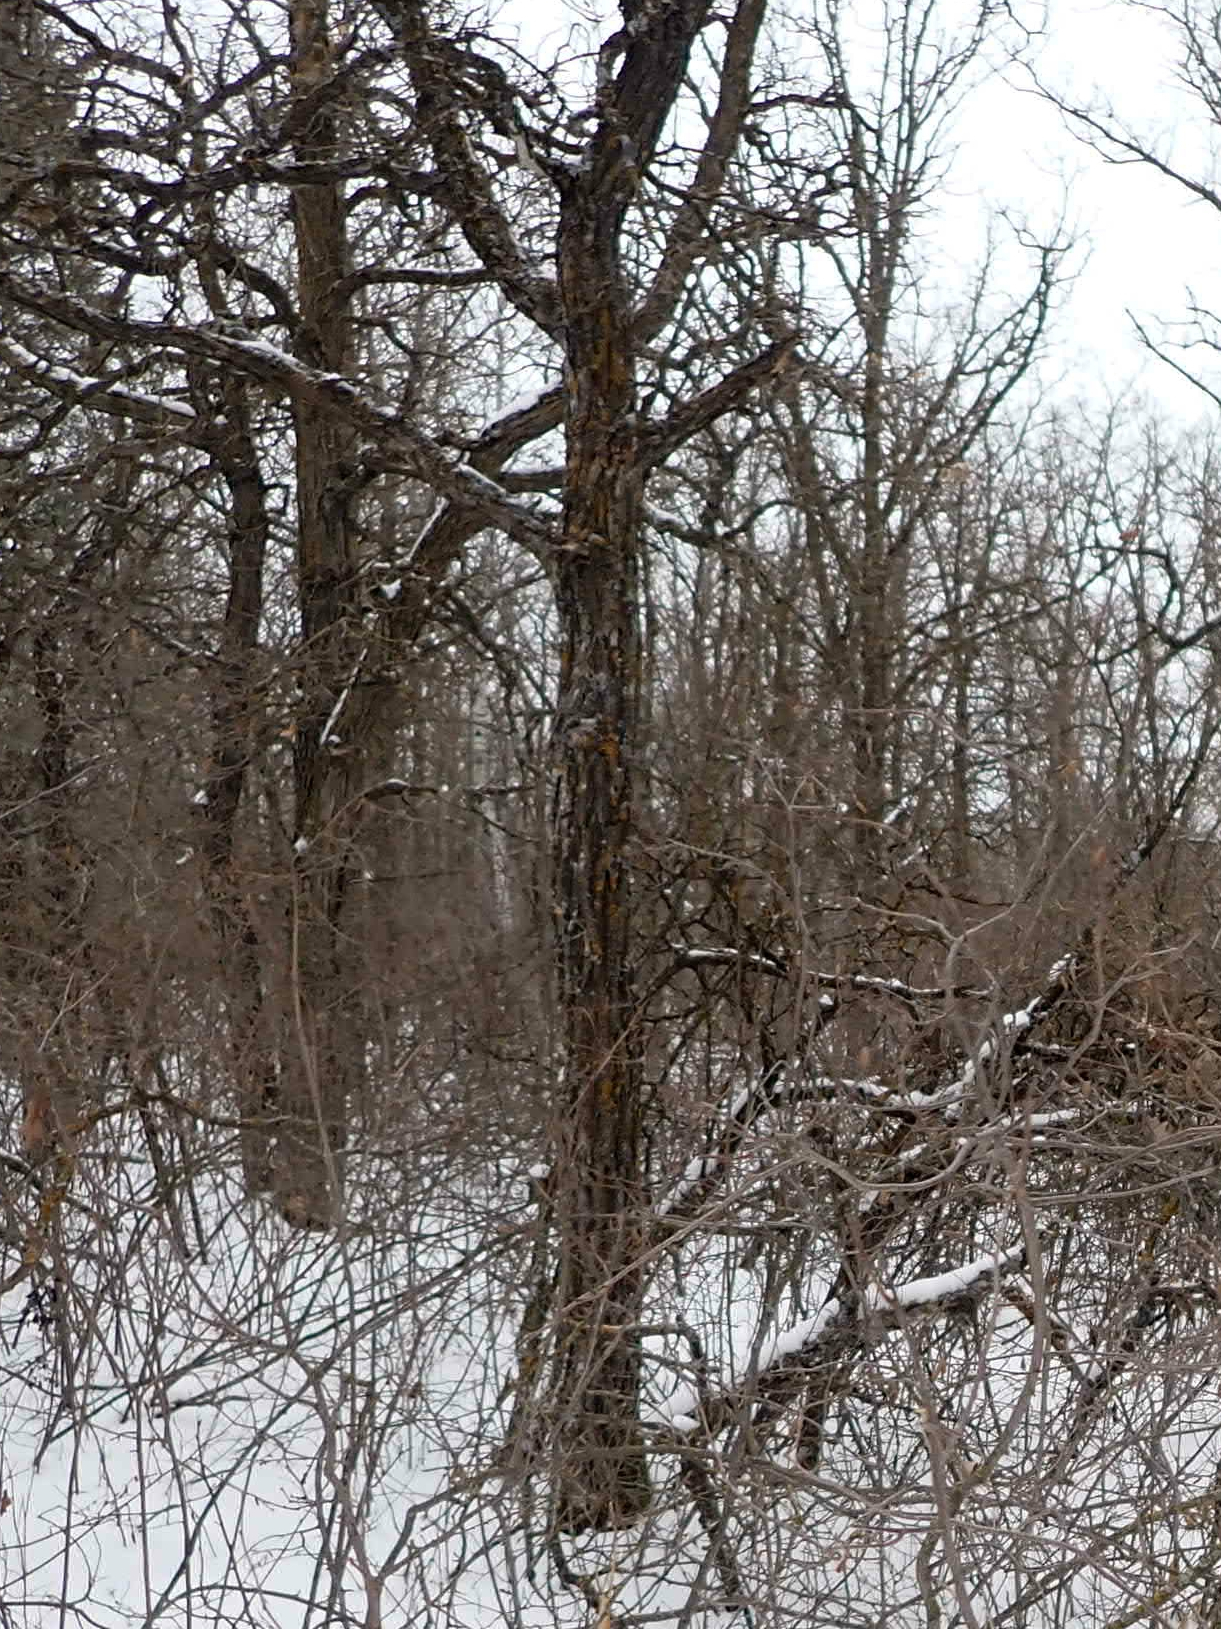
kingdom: Plantae
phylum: Tracheophyta
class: Magnoliopsida
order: Fagales
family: Fagaceae
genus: Quercus
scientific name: Quercus macrocarpa
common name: Bur oak
